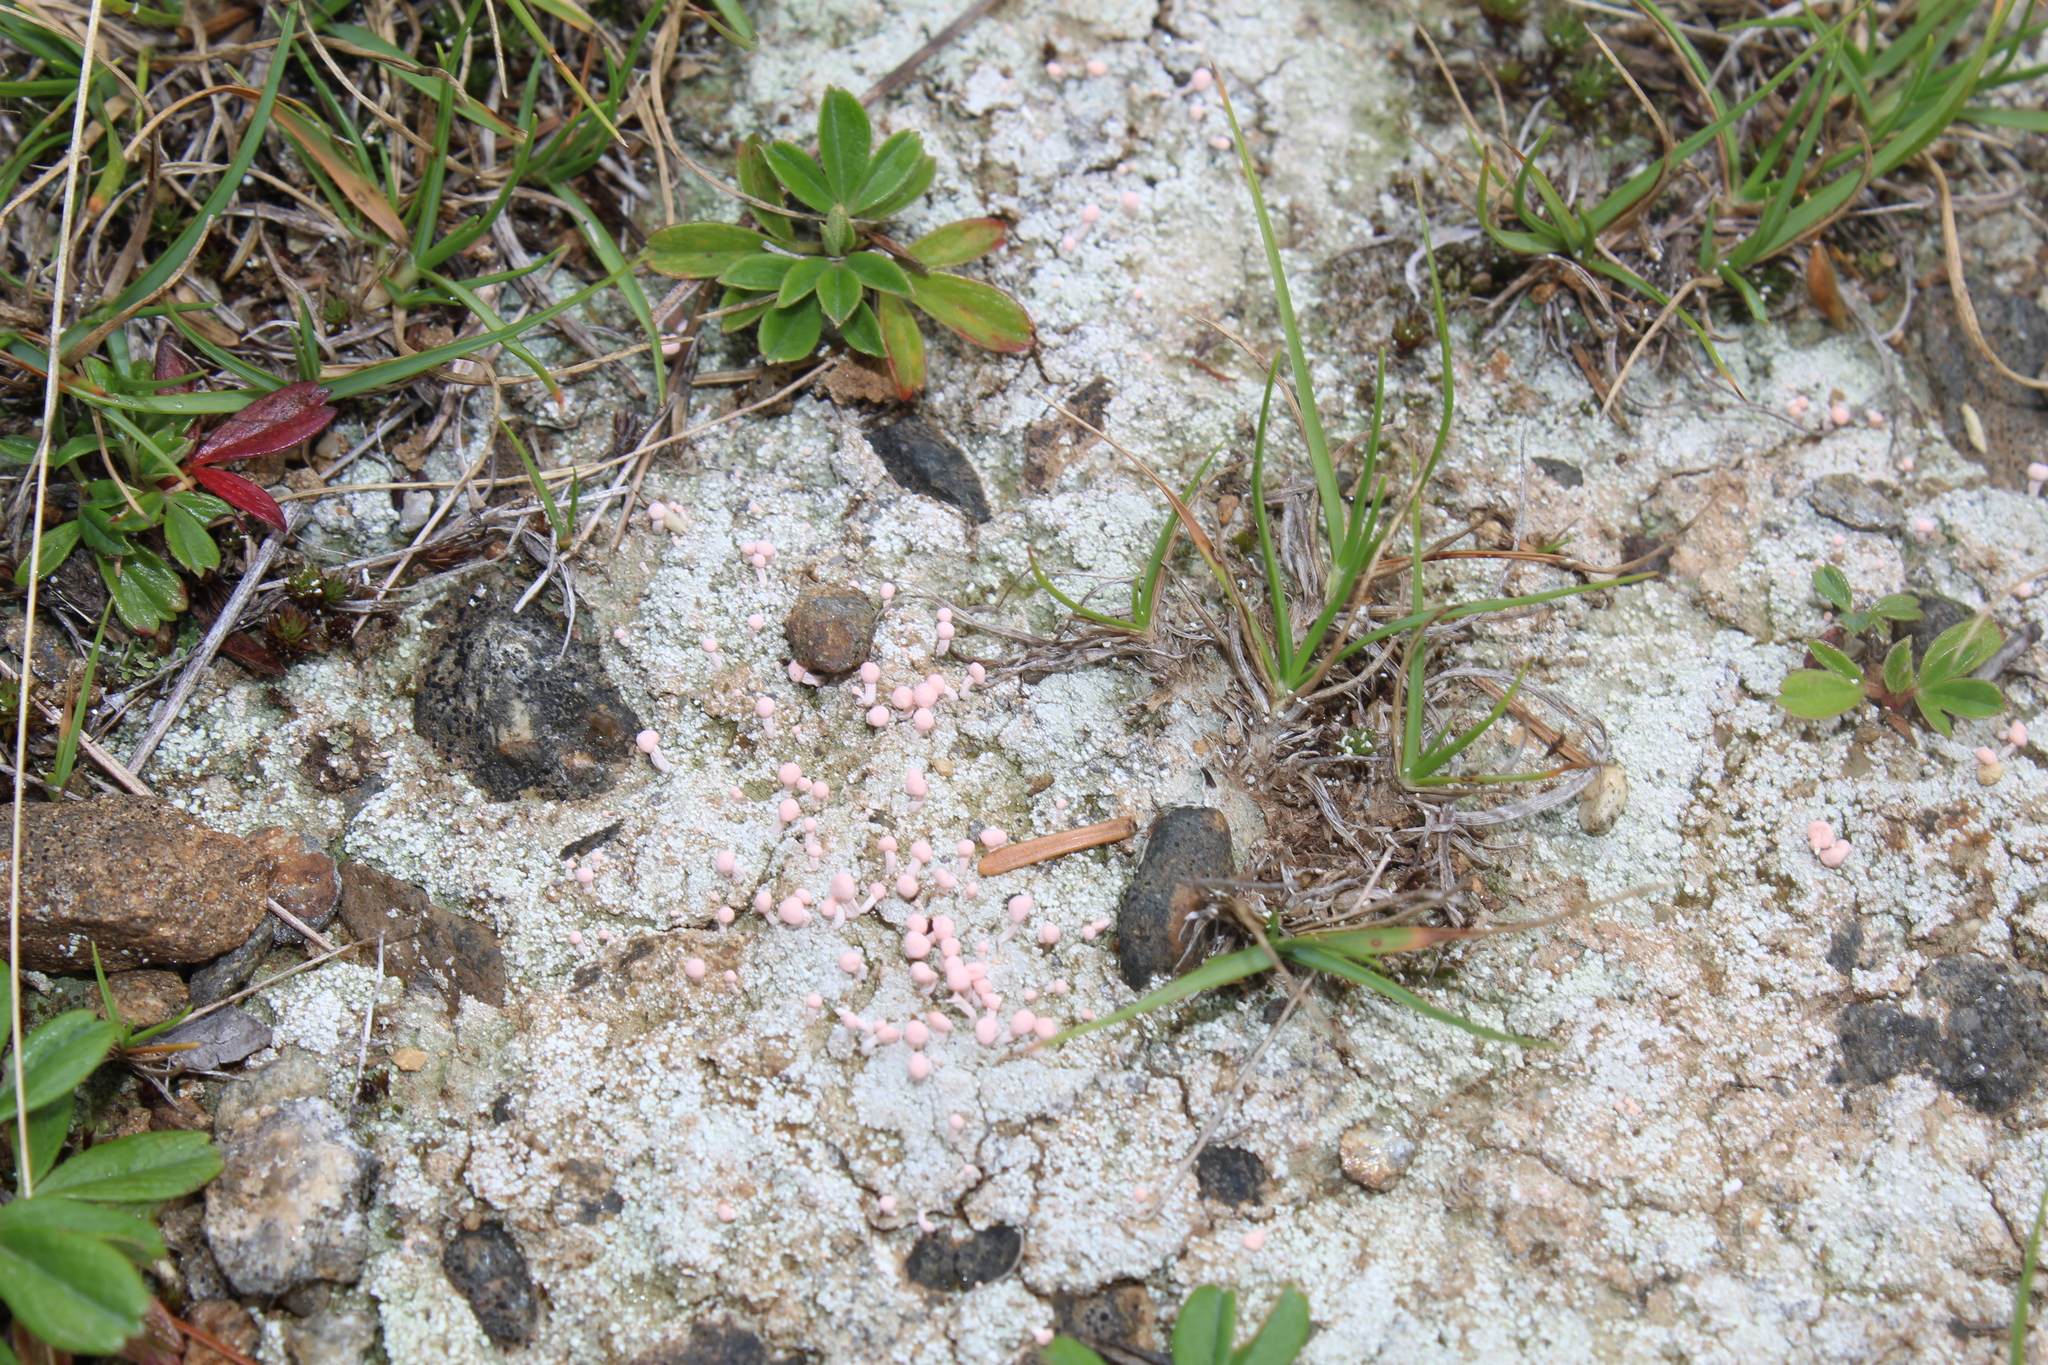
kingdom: Fungi
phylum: Ascomycota
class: Lecanoromycetes
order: Pertusariales
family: Icmadophilaceae
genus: Dibaeis
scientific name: Dibaeis baeomyces
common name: Pink earth lichen
